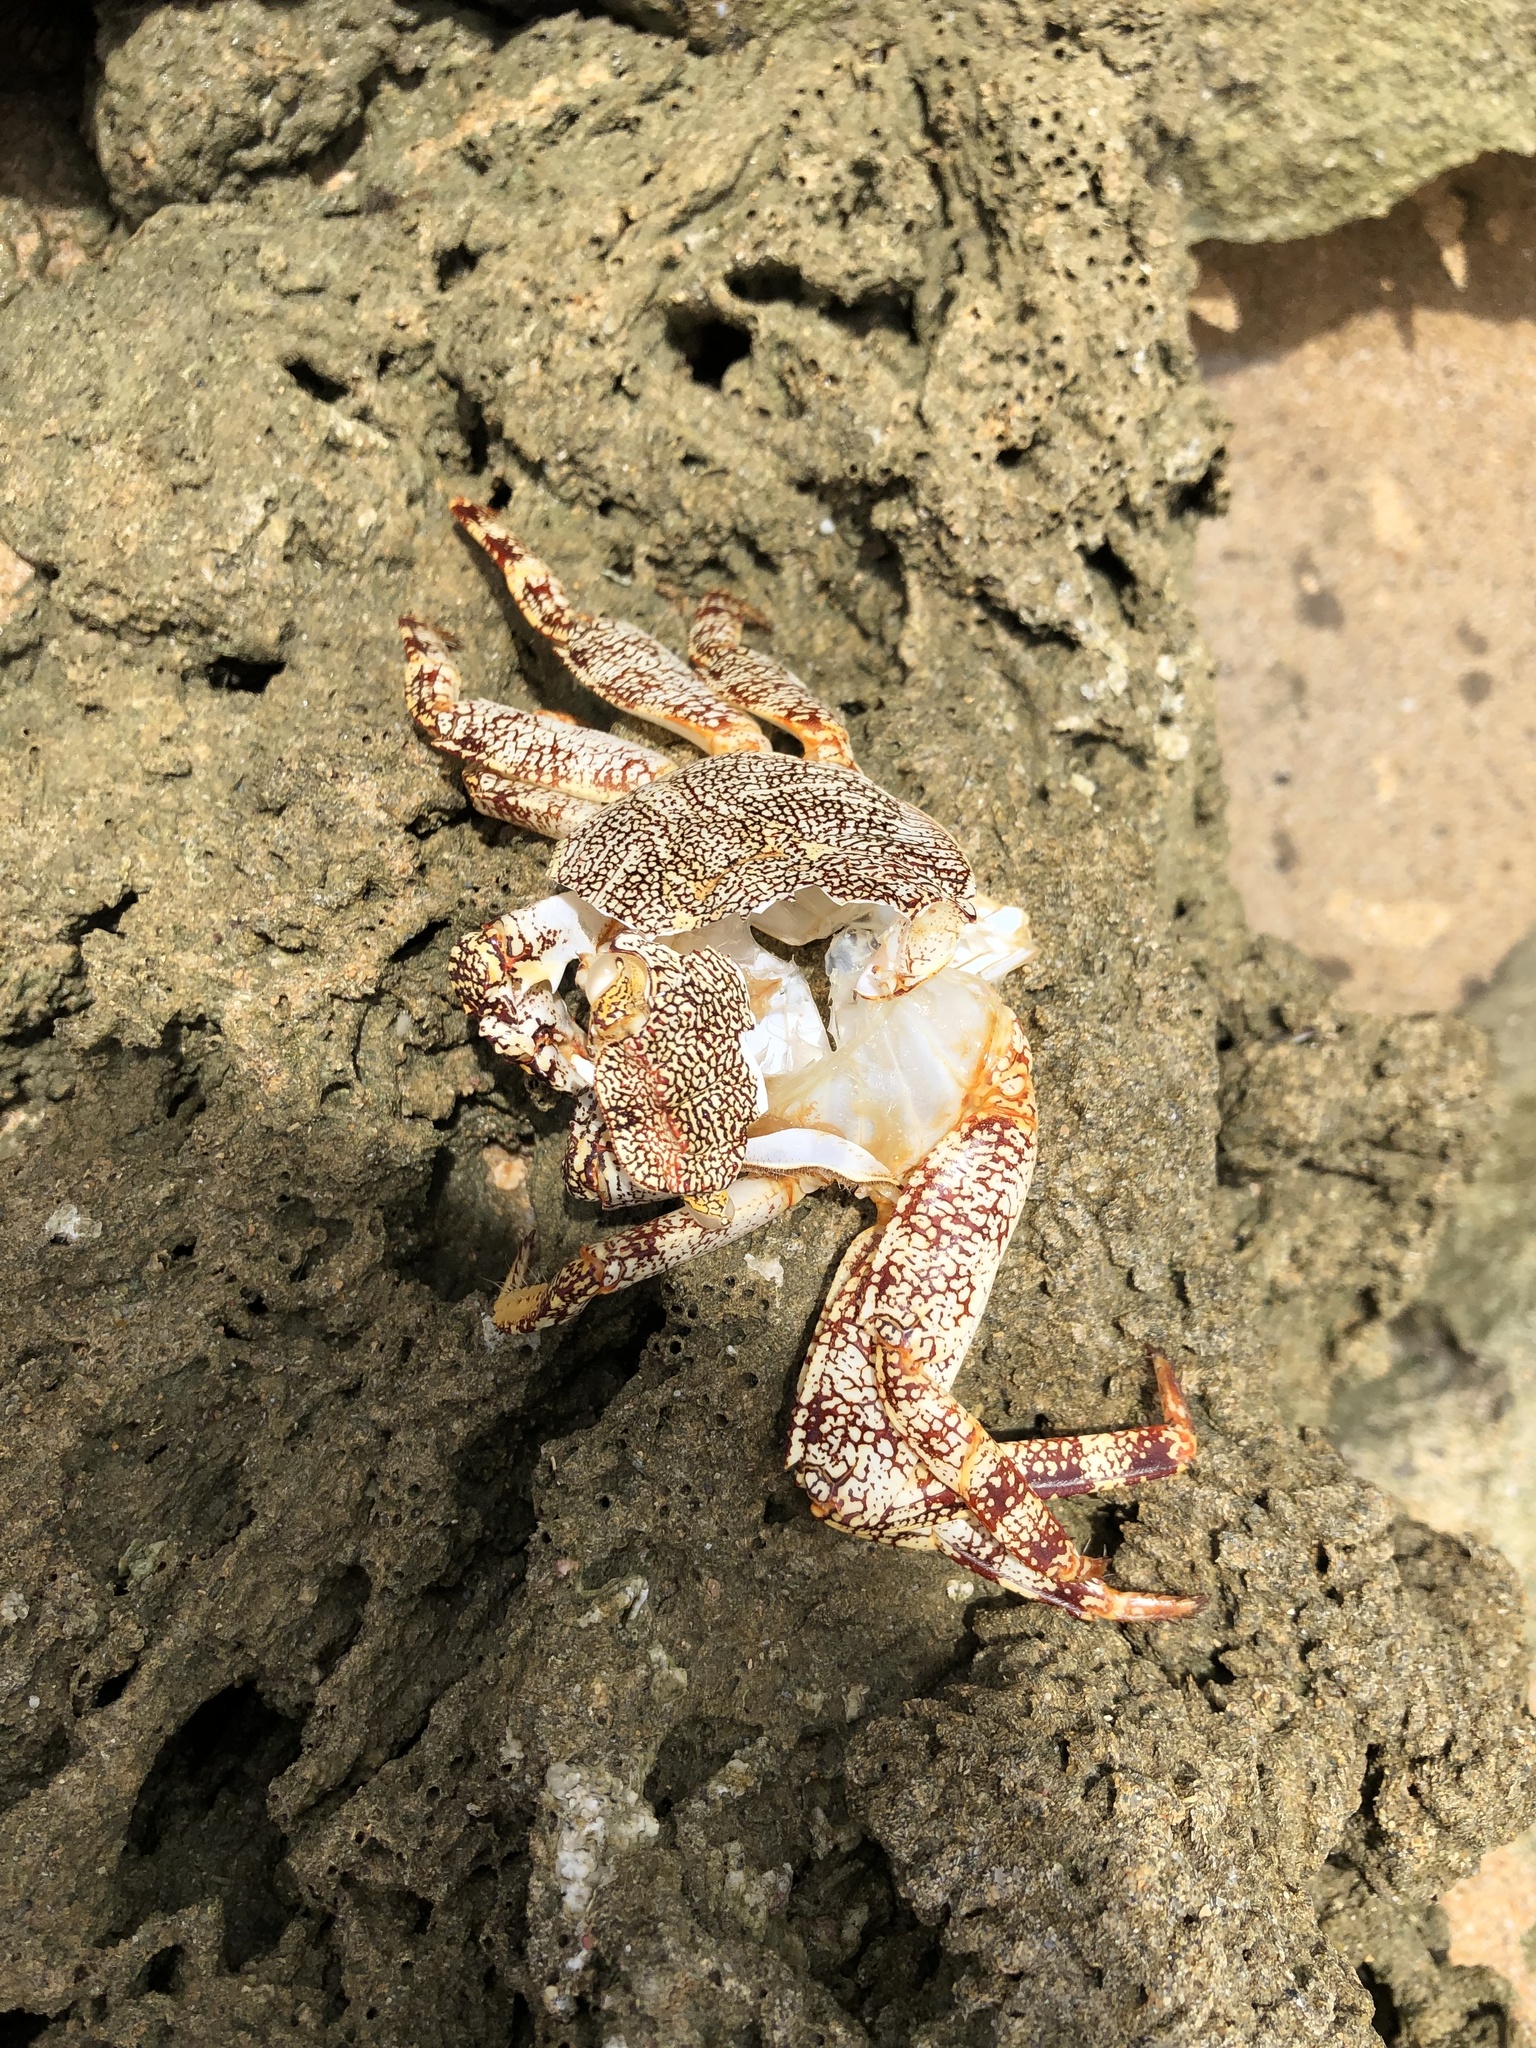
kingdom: Animalia
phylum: Arthropoda
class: Malacostraca
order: Decapoda
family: Grapsidae
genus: Grapsus
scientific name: Grapsus grapsus
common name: Sally lightfoot
